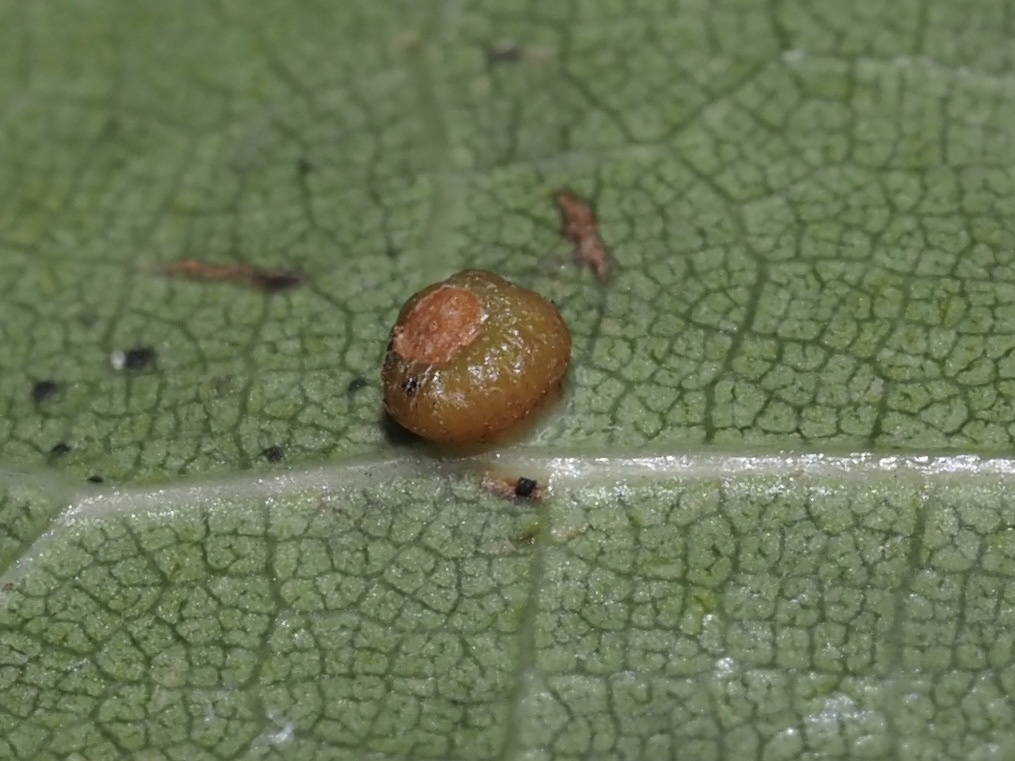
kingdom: Animalia
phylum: Arthropoda
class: Insecta
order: Diptera
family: Cecidomyiidae
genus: Polystepha
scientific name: Polystepha globosa
